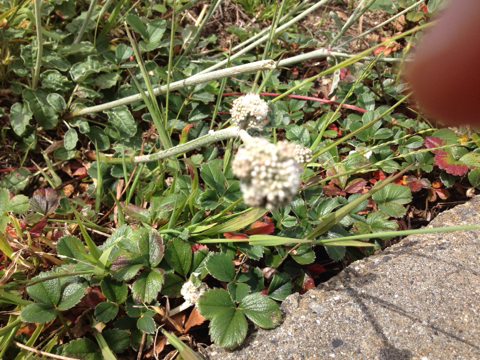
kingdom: Plantae
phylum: Tracheophyta
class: Magnoliopsida
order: Caryophyllales
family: Polygonaceae
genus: Eriogonum
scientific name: Eriogonum latifolium
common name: Seaside wild buckwheat
